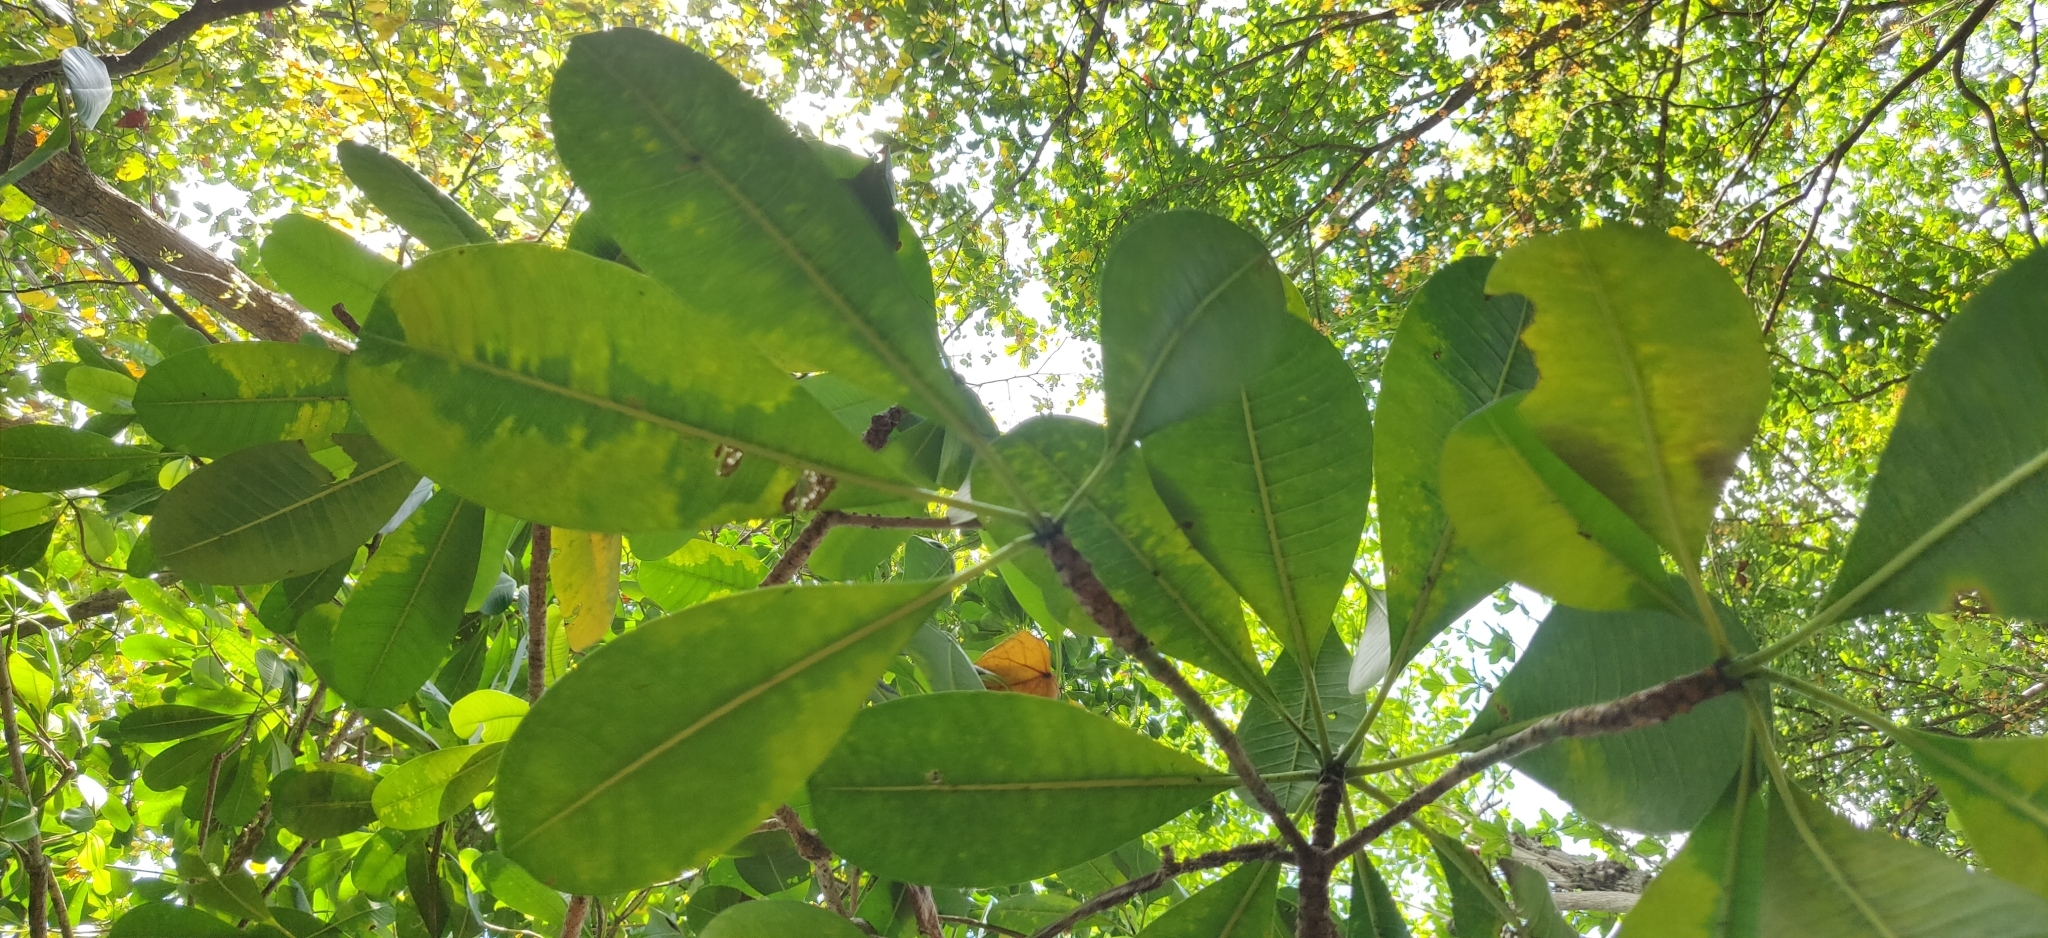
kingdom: Plantae
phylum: Tracheophyta
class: Magnoliopsida
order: Gentianales
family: Apocynaceae
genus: Cerbera
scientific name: Cerbera odollam
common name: Pong-pong
